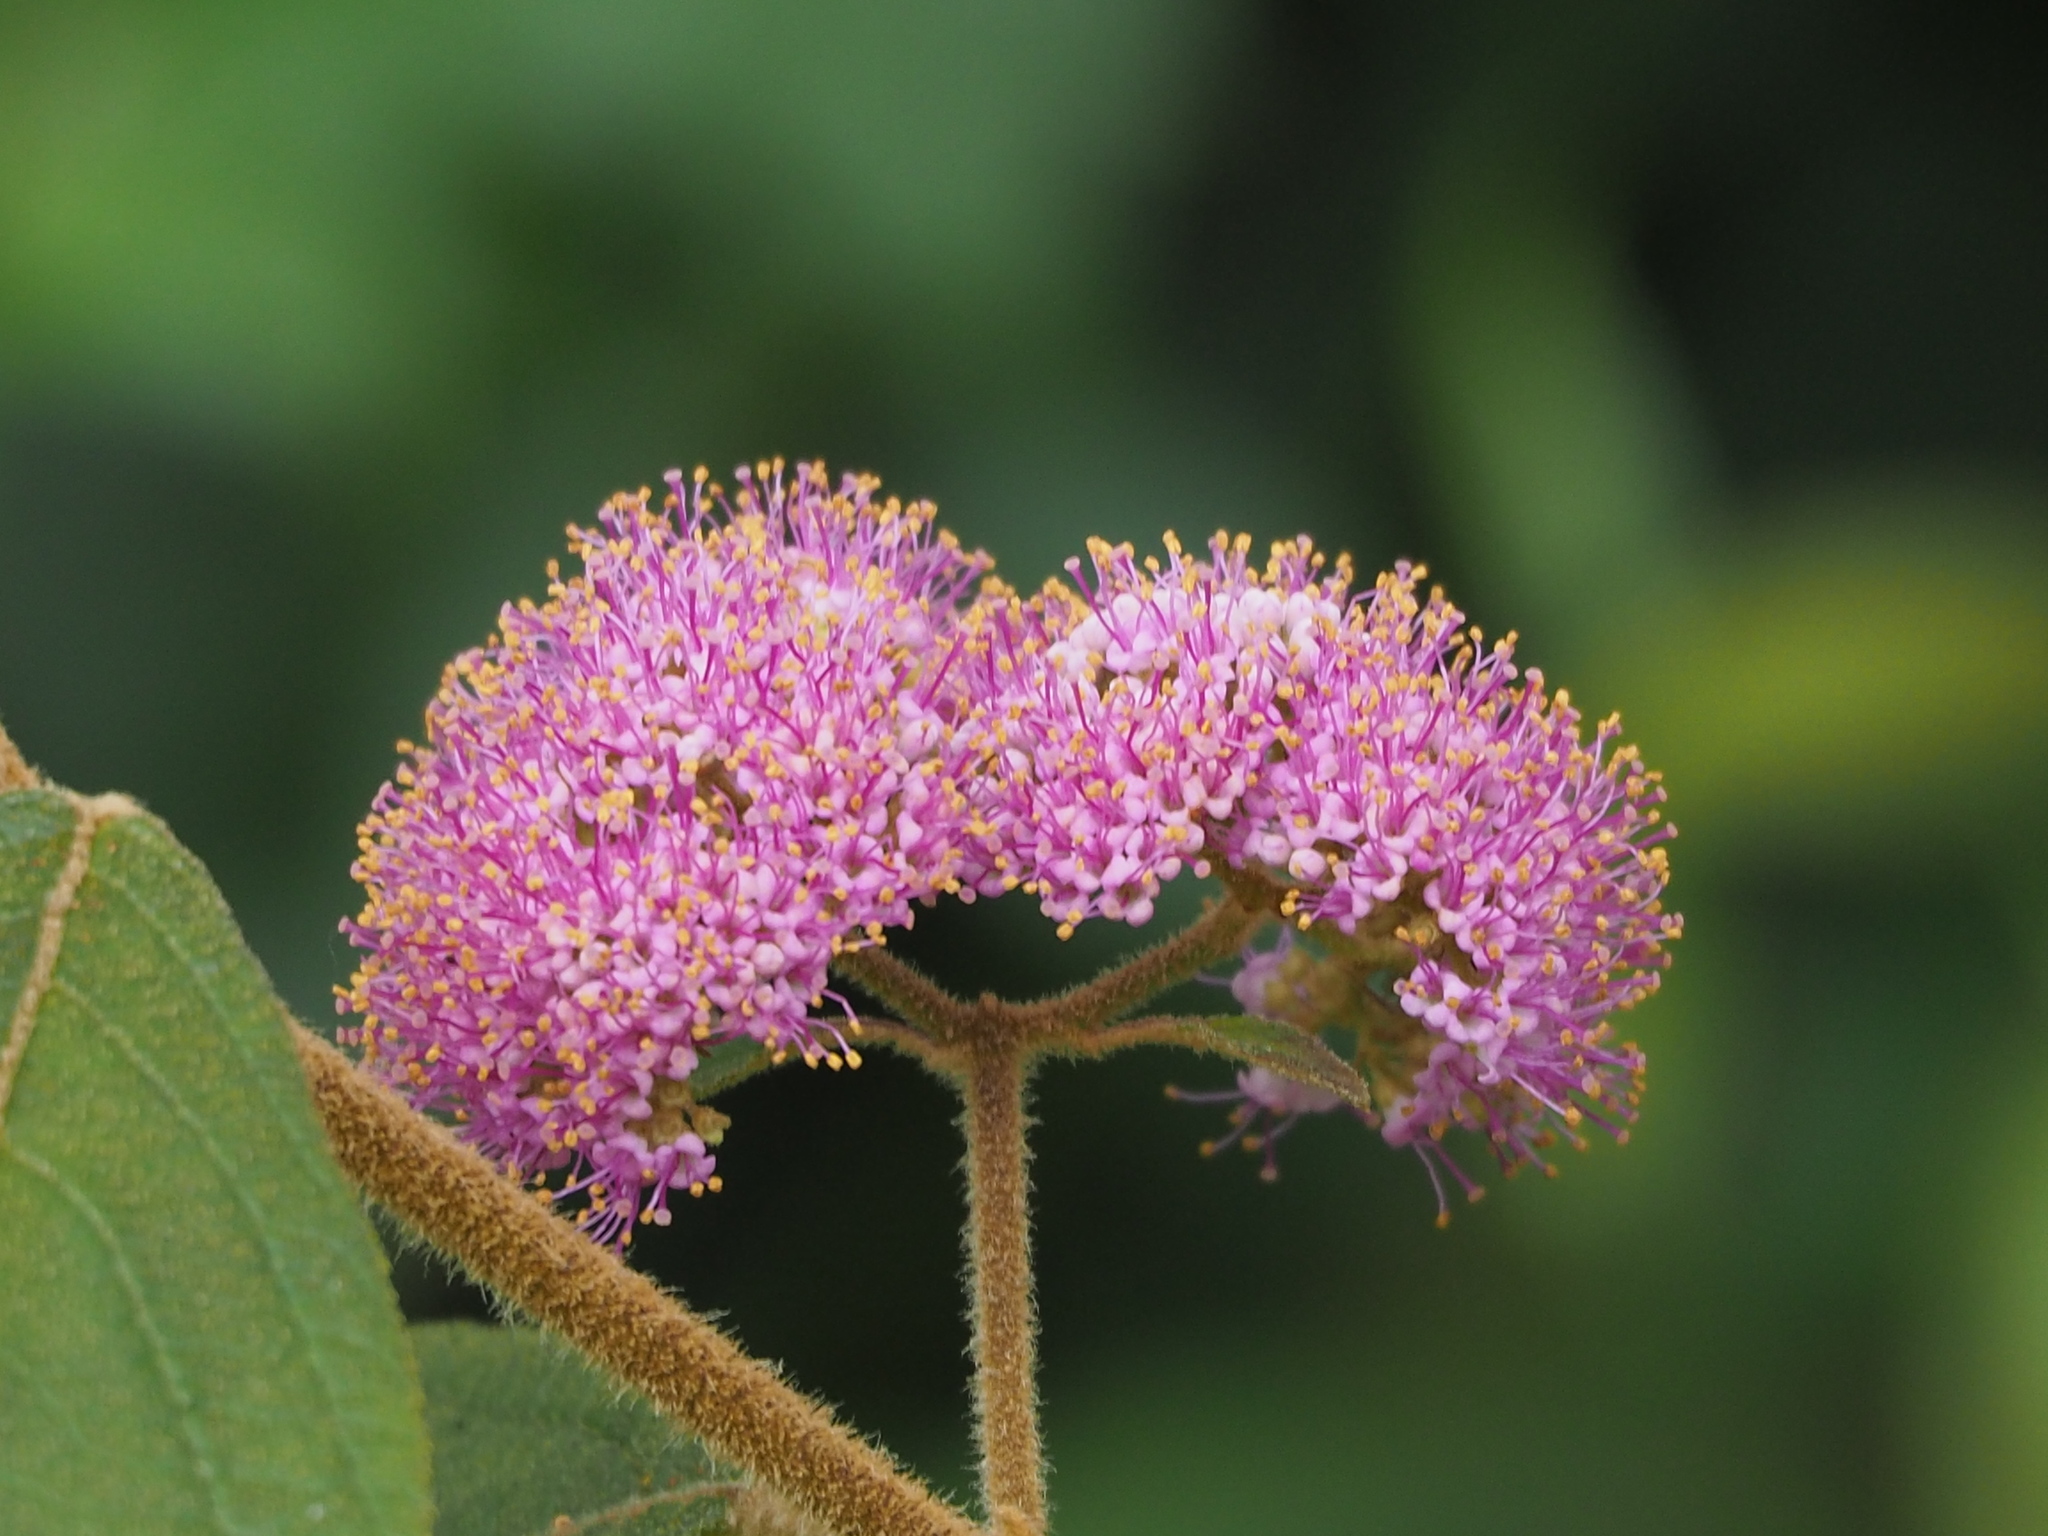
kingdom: Plantae
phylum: Tracheophyta
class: Magnoliopsida
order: Lamiales
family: Lamiaceae
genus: Callicarpa
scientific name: Callicarpa pedunculata
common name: Velvetleaf
